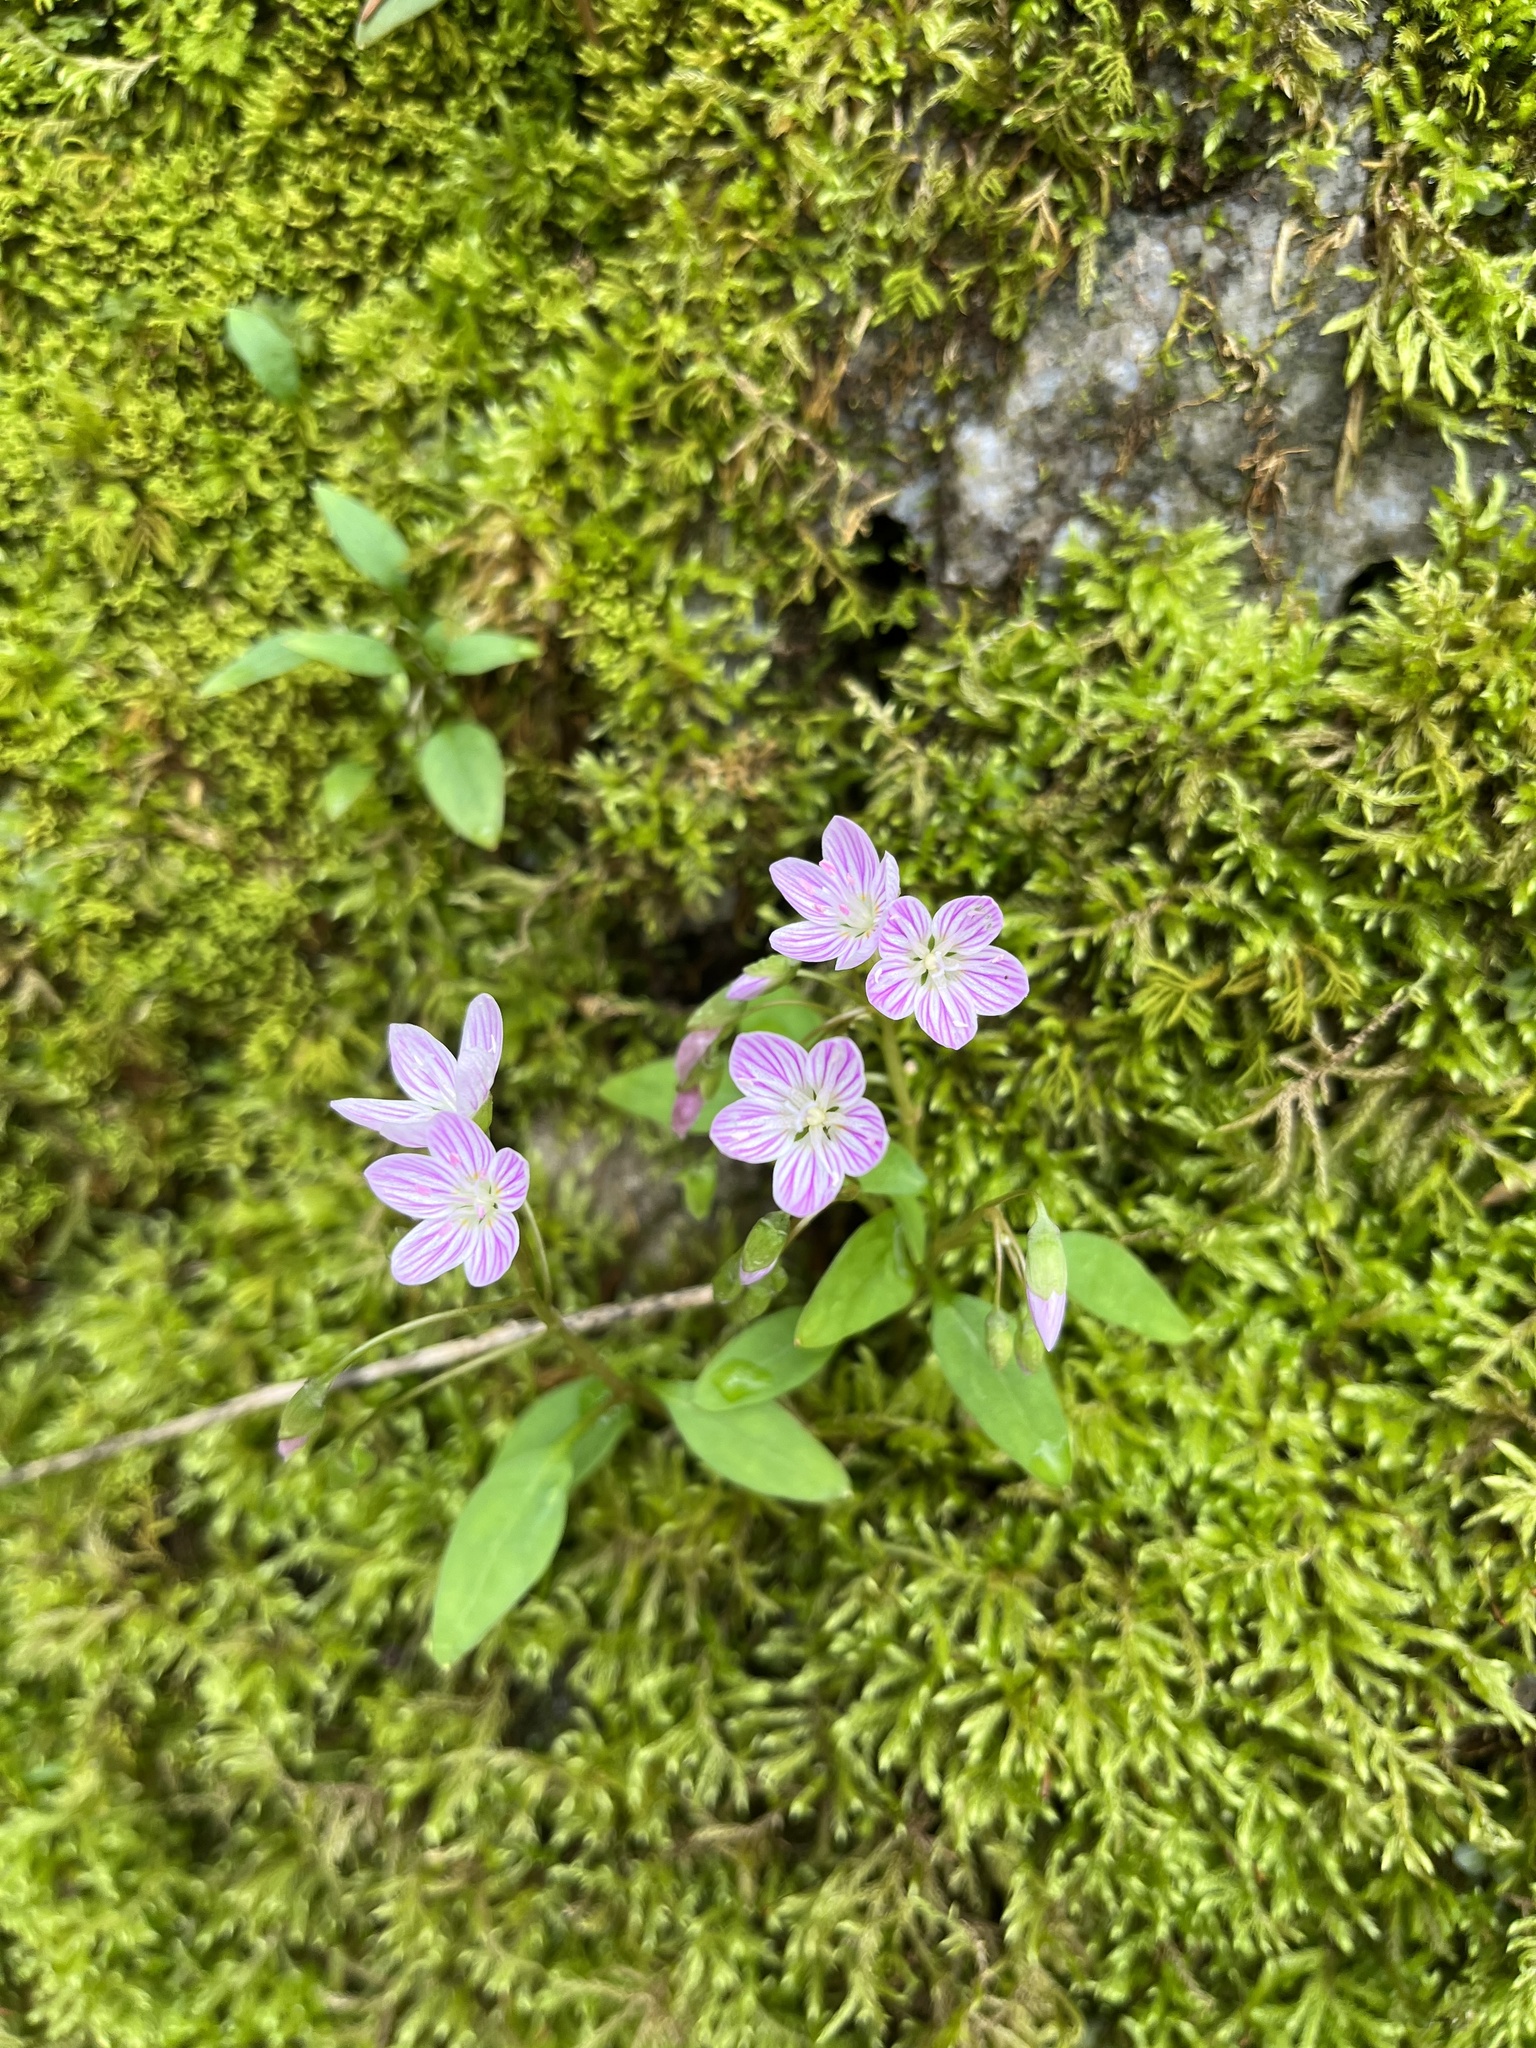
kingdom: Plantae
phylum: Tracheophyta
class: Magnoliopsida
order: Caryophyllales
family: Montiaceae
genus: Claytonia
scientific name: Claytonia caroliniana
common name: Carolina spring beauty
